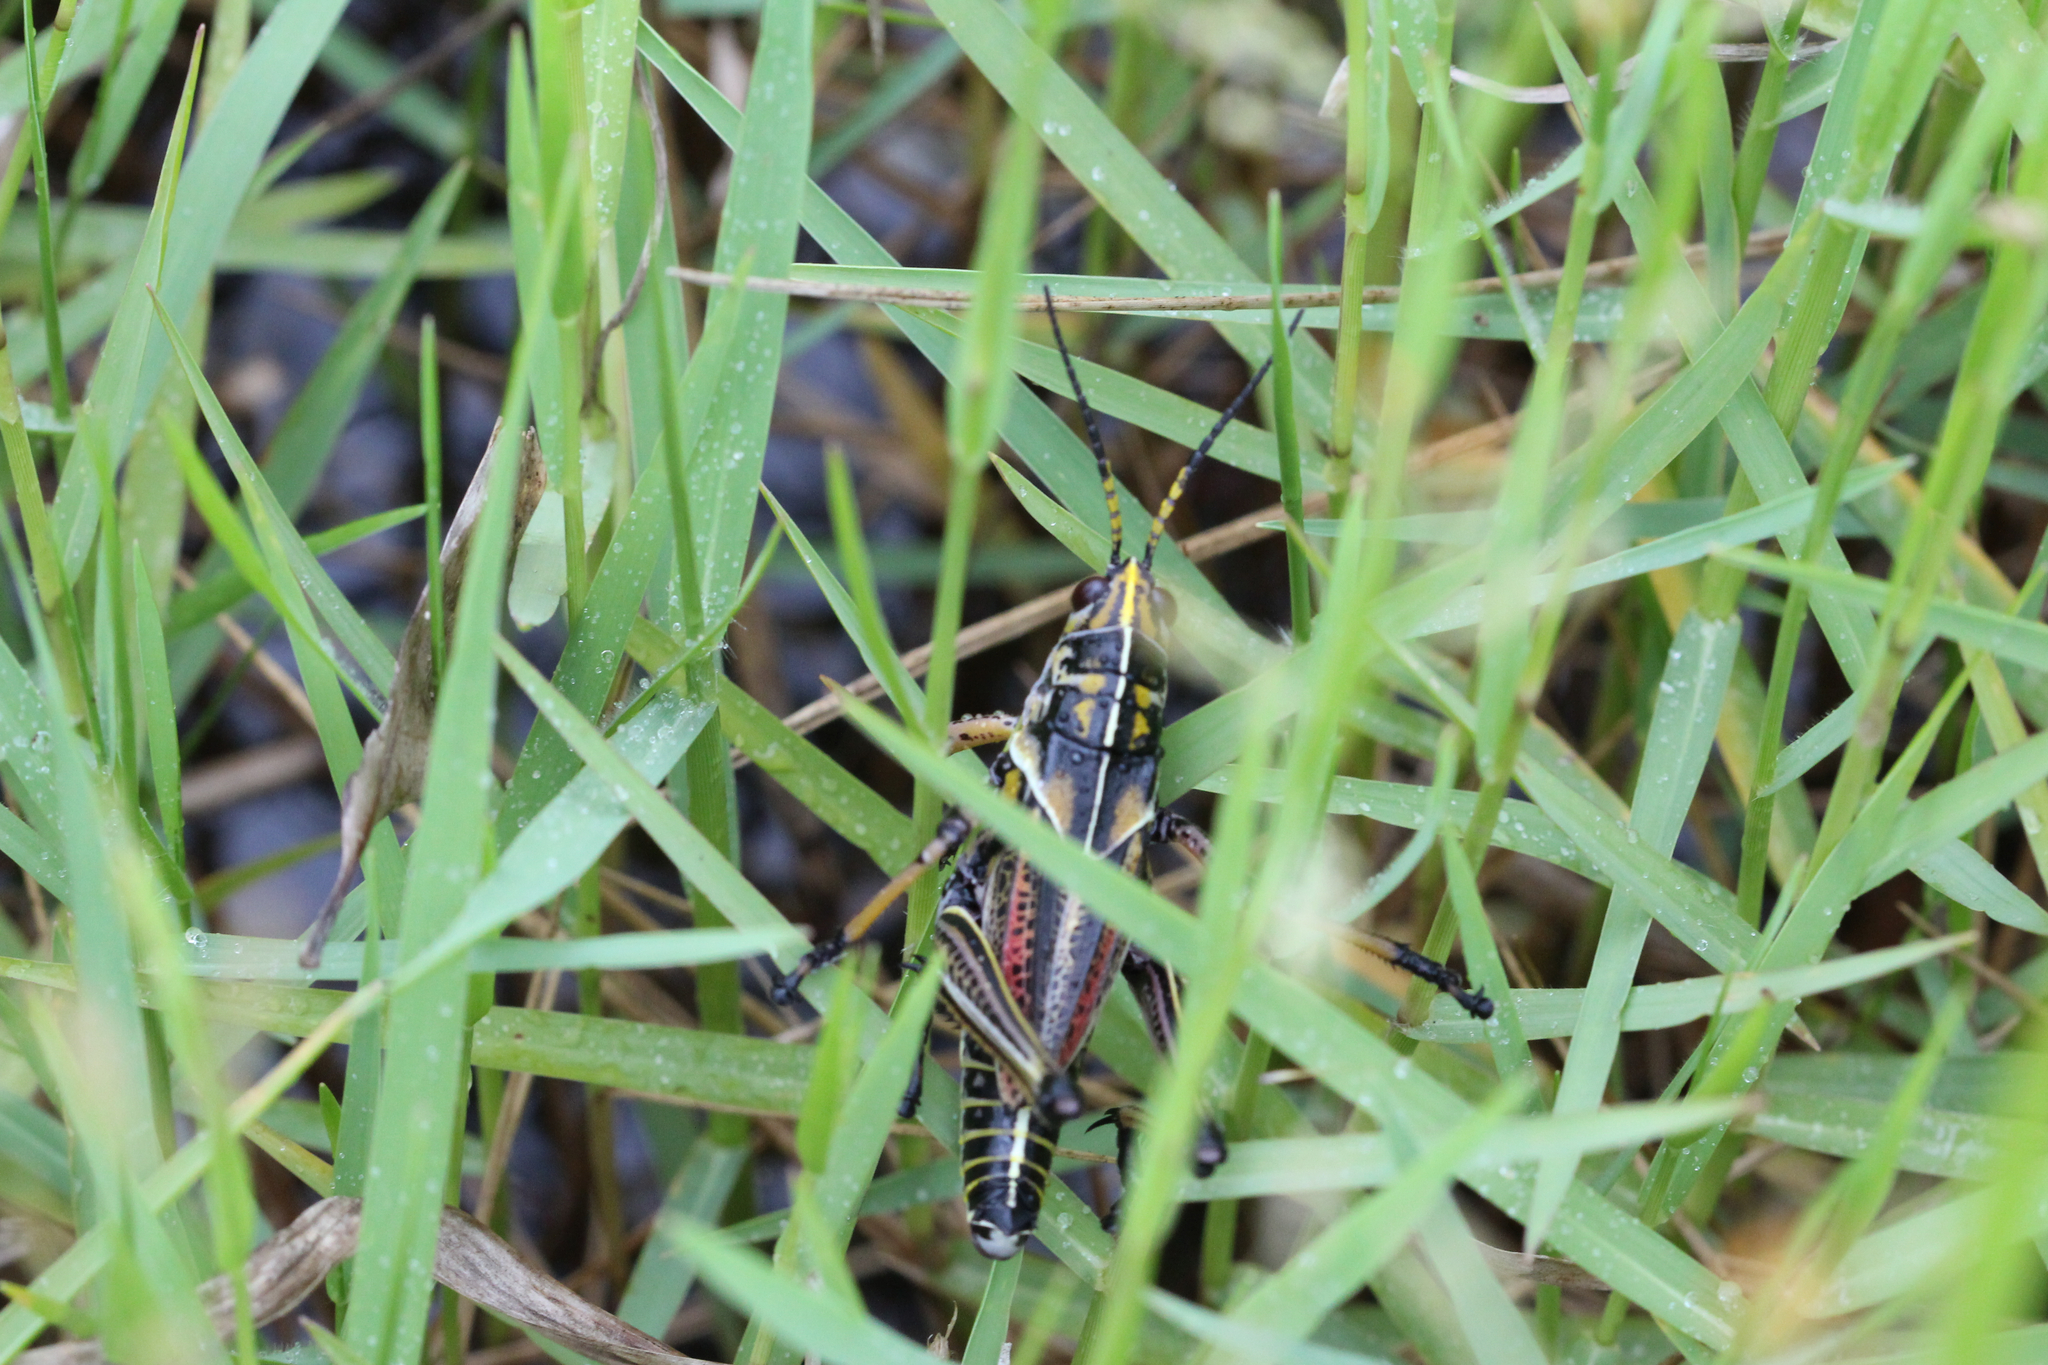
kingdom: Animalia
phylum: Arthropoda
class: Insecta
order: Orthoptera
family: Romaleidae
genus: Romalea
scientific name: Romalea microptera
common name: Eastern lubber grasshopper
